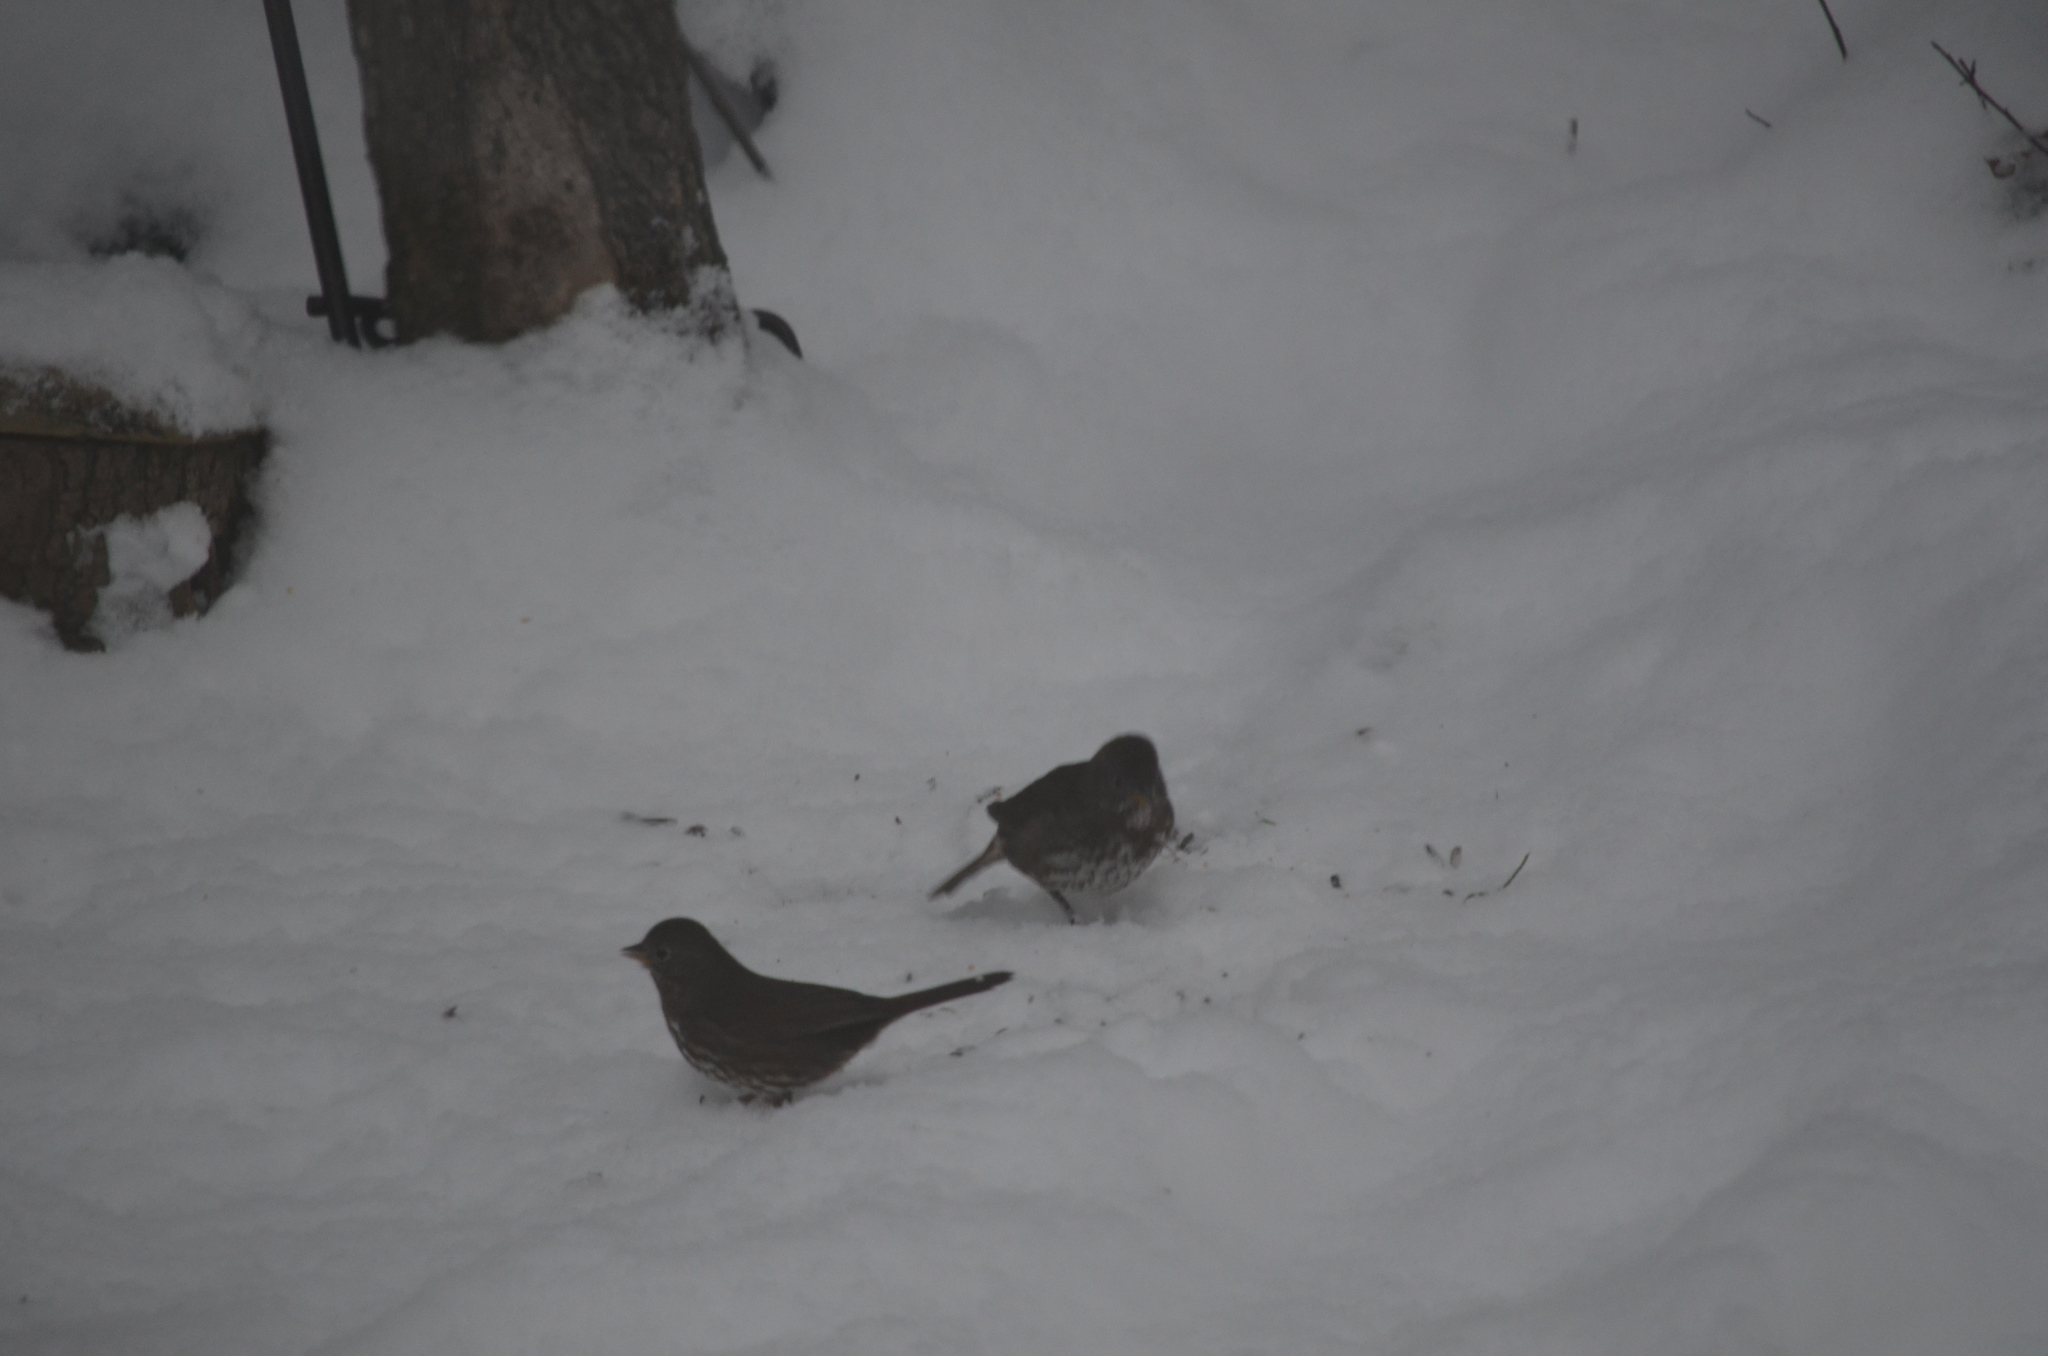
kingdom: Animalia
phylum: Chordata
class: Aves
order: Passeriformes
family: Passerellidae
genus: Passerella
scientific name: Passerella iliaca
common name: Fox sparrow
